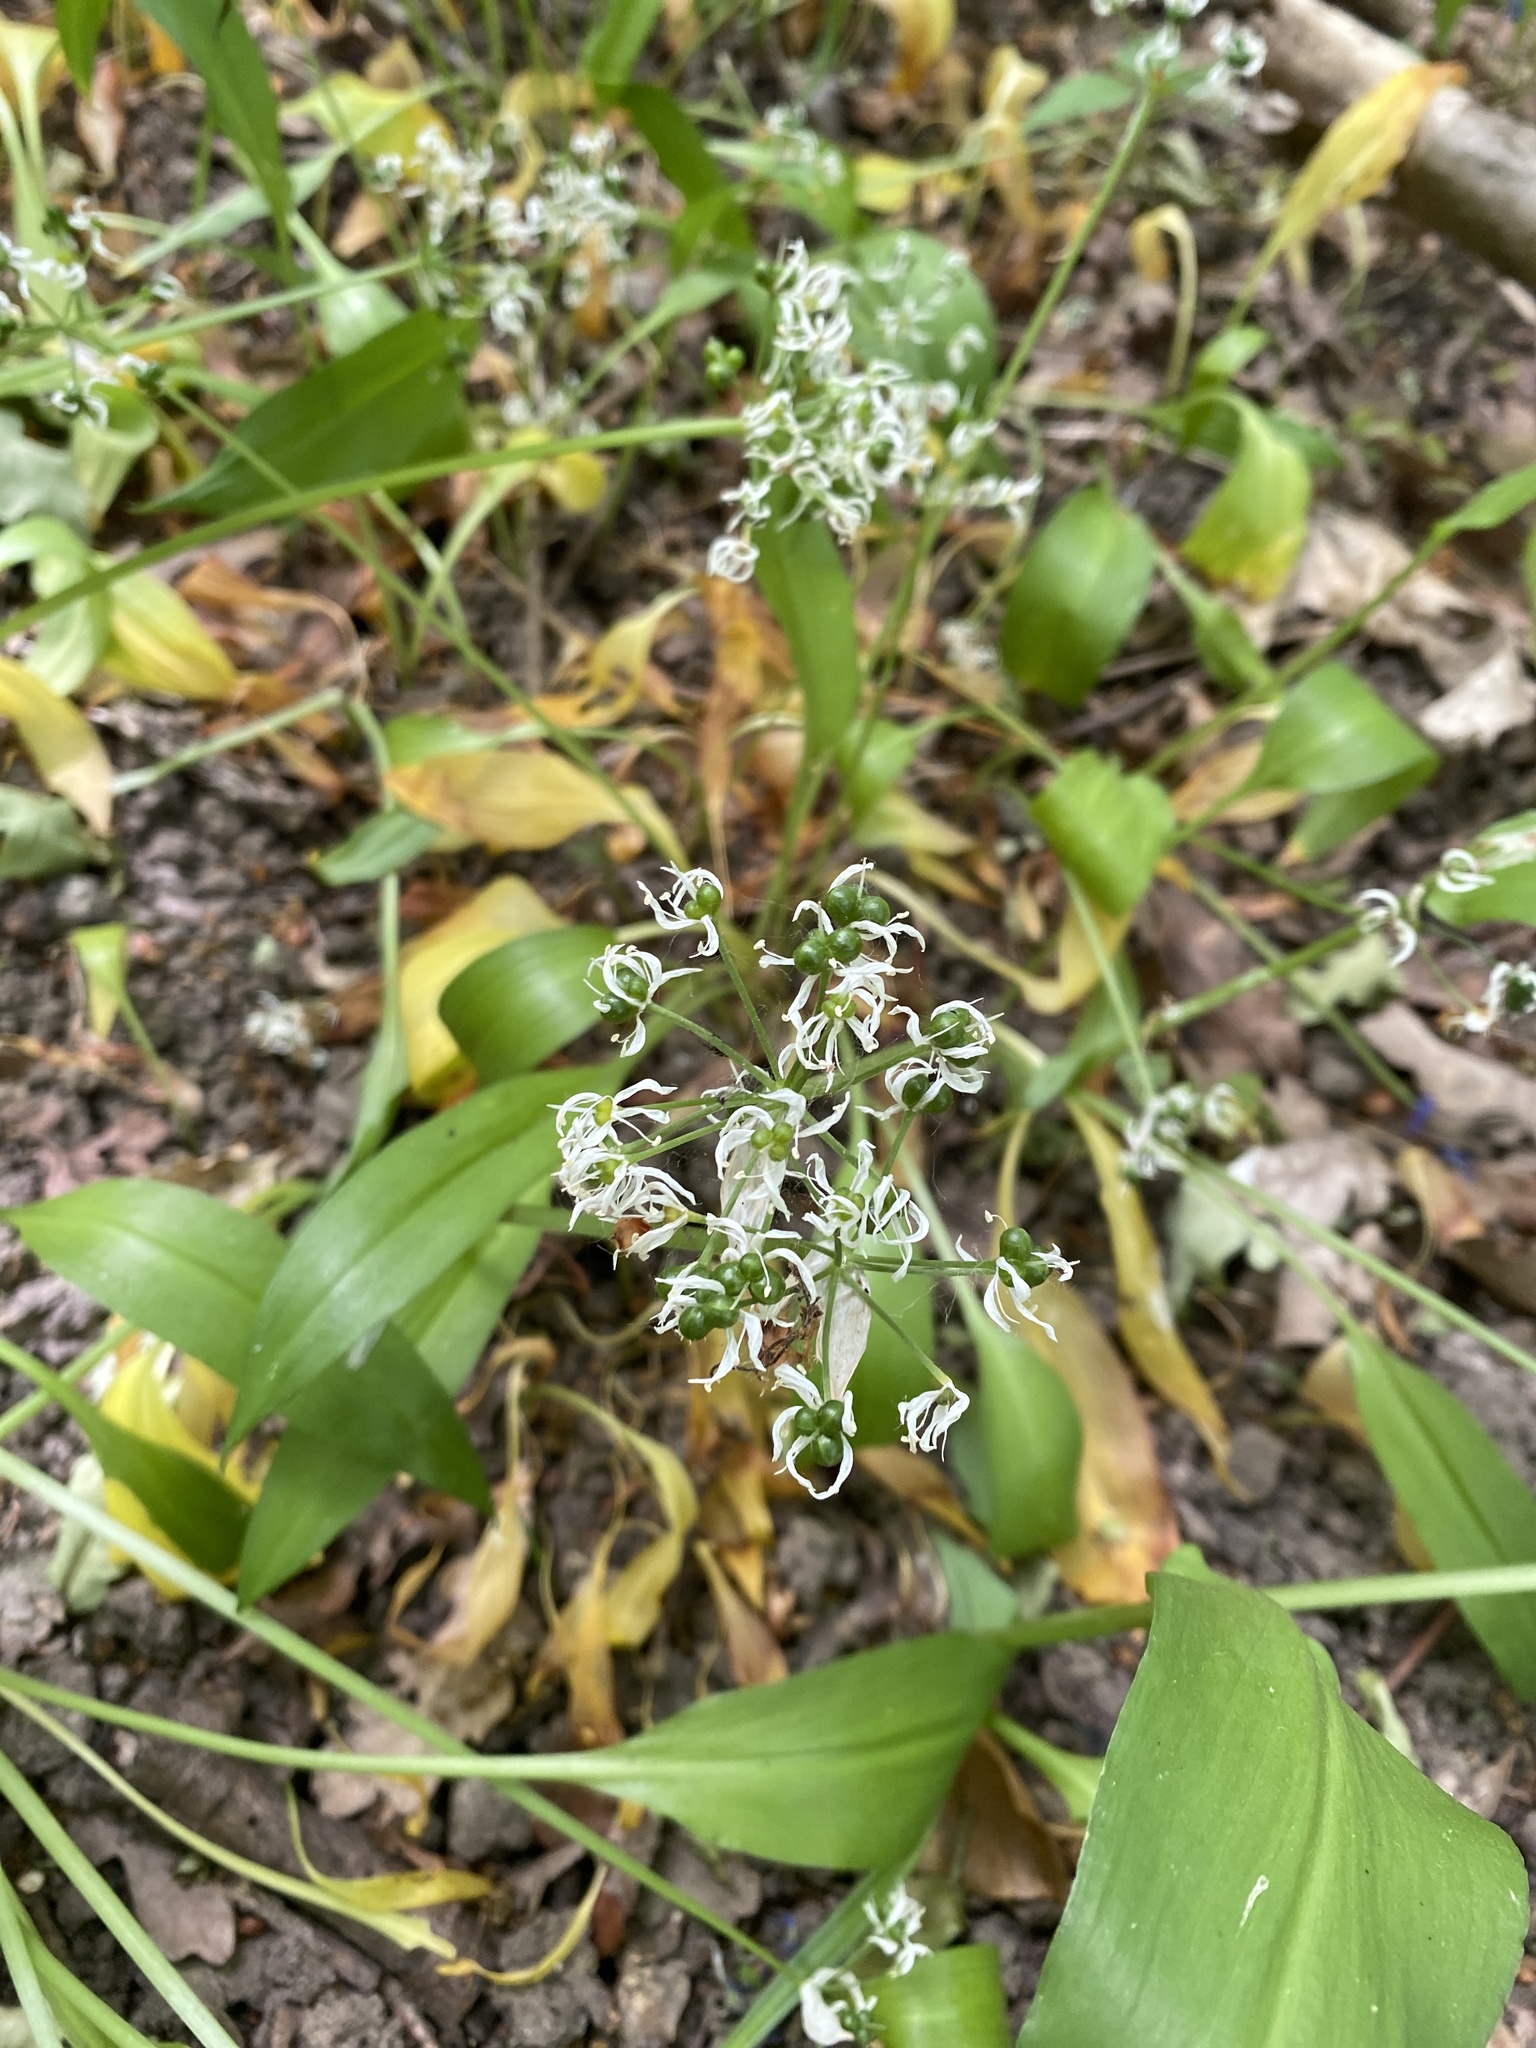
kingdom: Plantae
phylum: Tracheophyta
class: Liliopsida
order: Asparagales
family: Amaryllidaceae
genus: Allium
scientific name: Allium ursinum
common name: Ramsons
